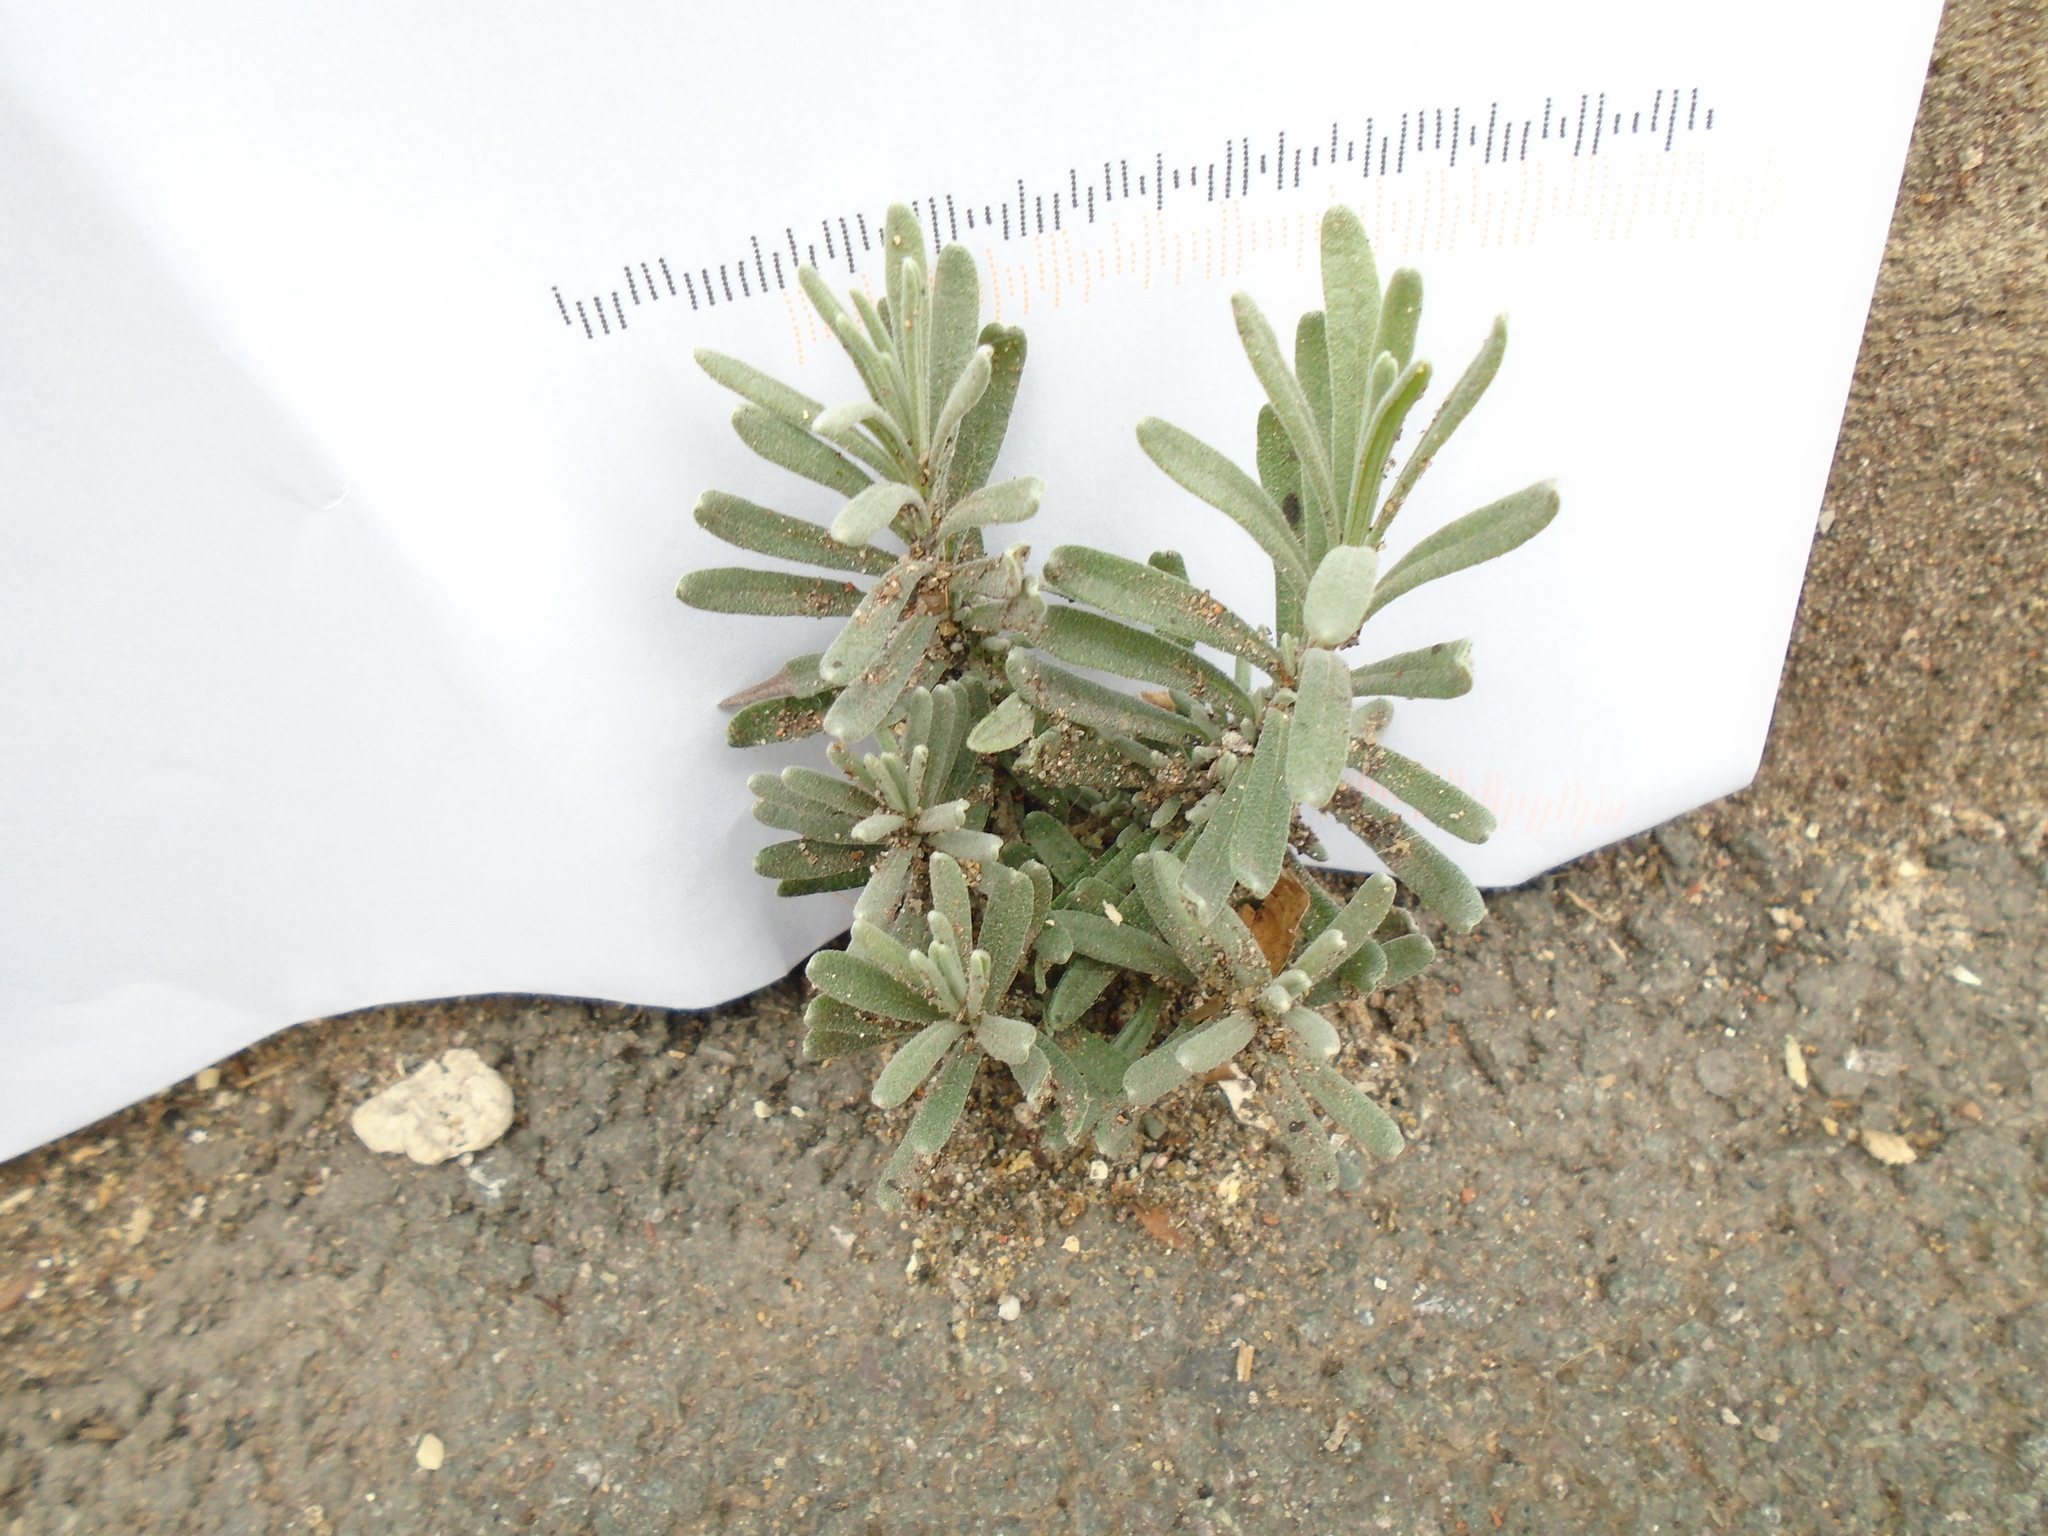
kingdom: Plantae
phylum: Tracheophyta
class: Magnoliopsida
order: Lamiales
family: Lamiaceae
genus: Lavandula
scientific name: Lavandula angustifolia
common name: Garden lavender
